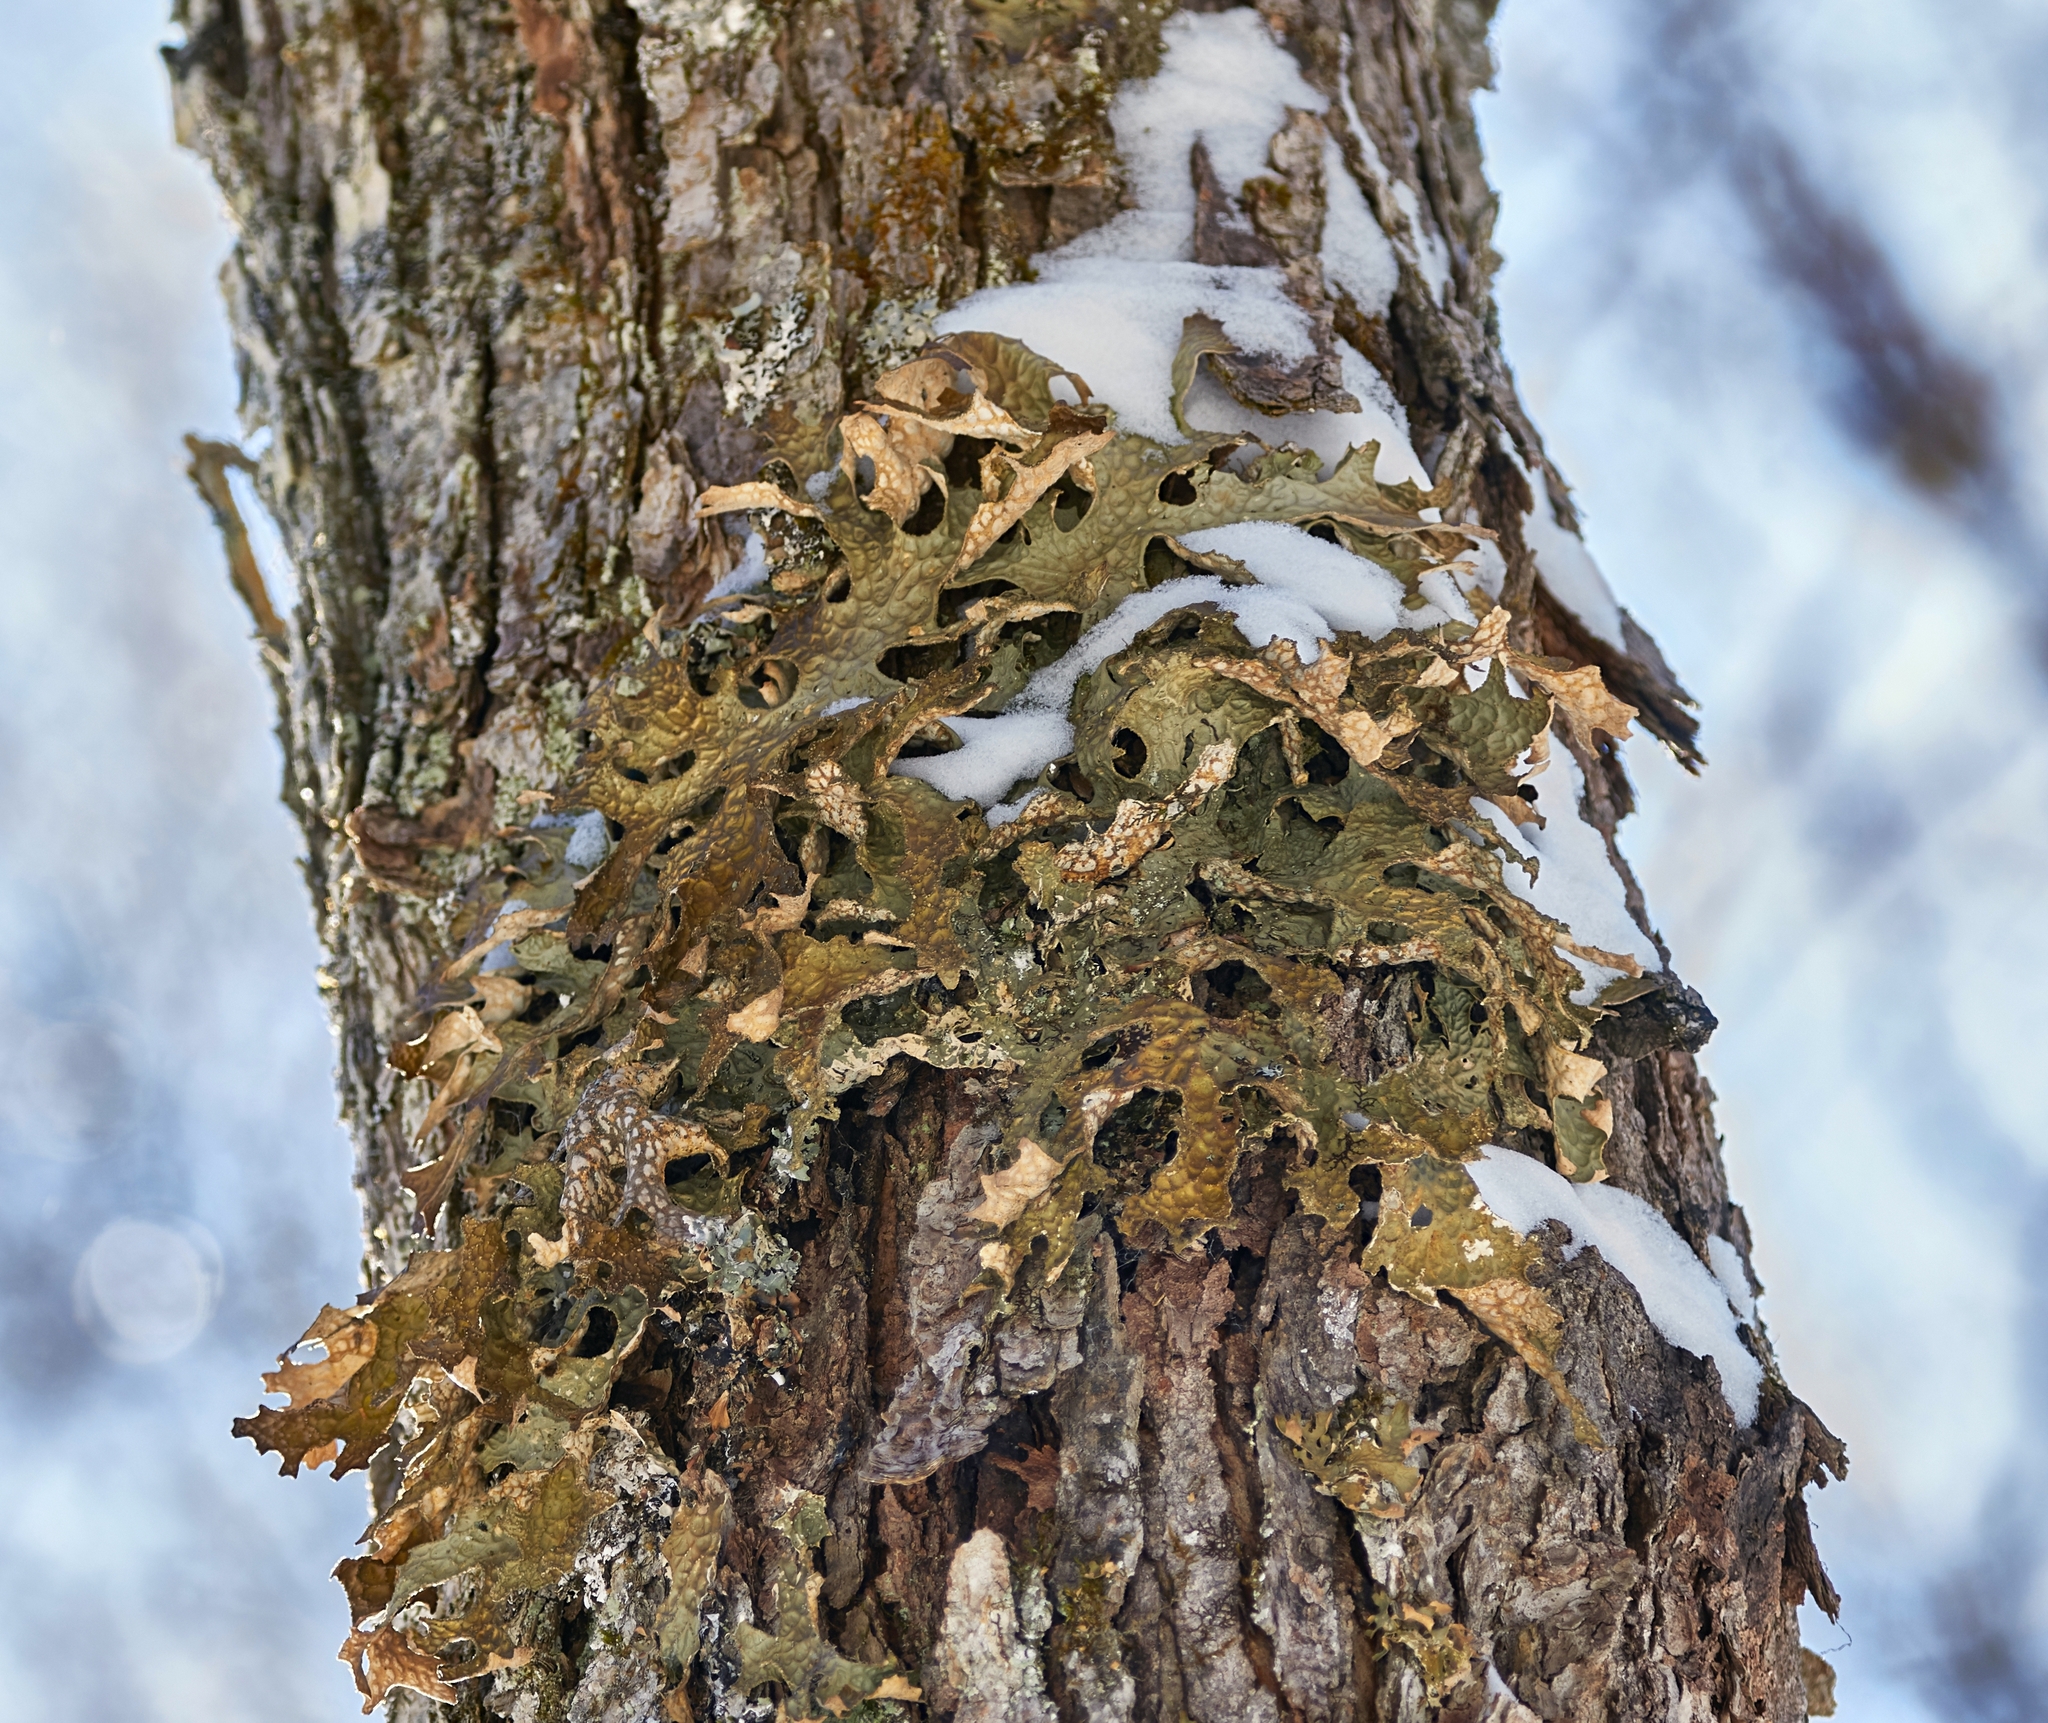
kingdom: Fungi
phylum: Ascomycota
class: Lecanoromycetes
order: Peltigerales
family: Lobariaceae
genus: Lobaria
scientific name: Lobaria pulmonaria
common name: Lungwort
